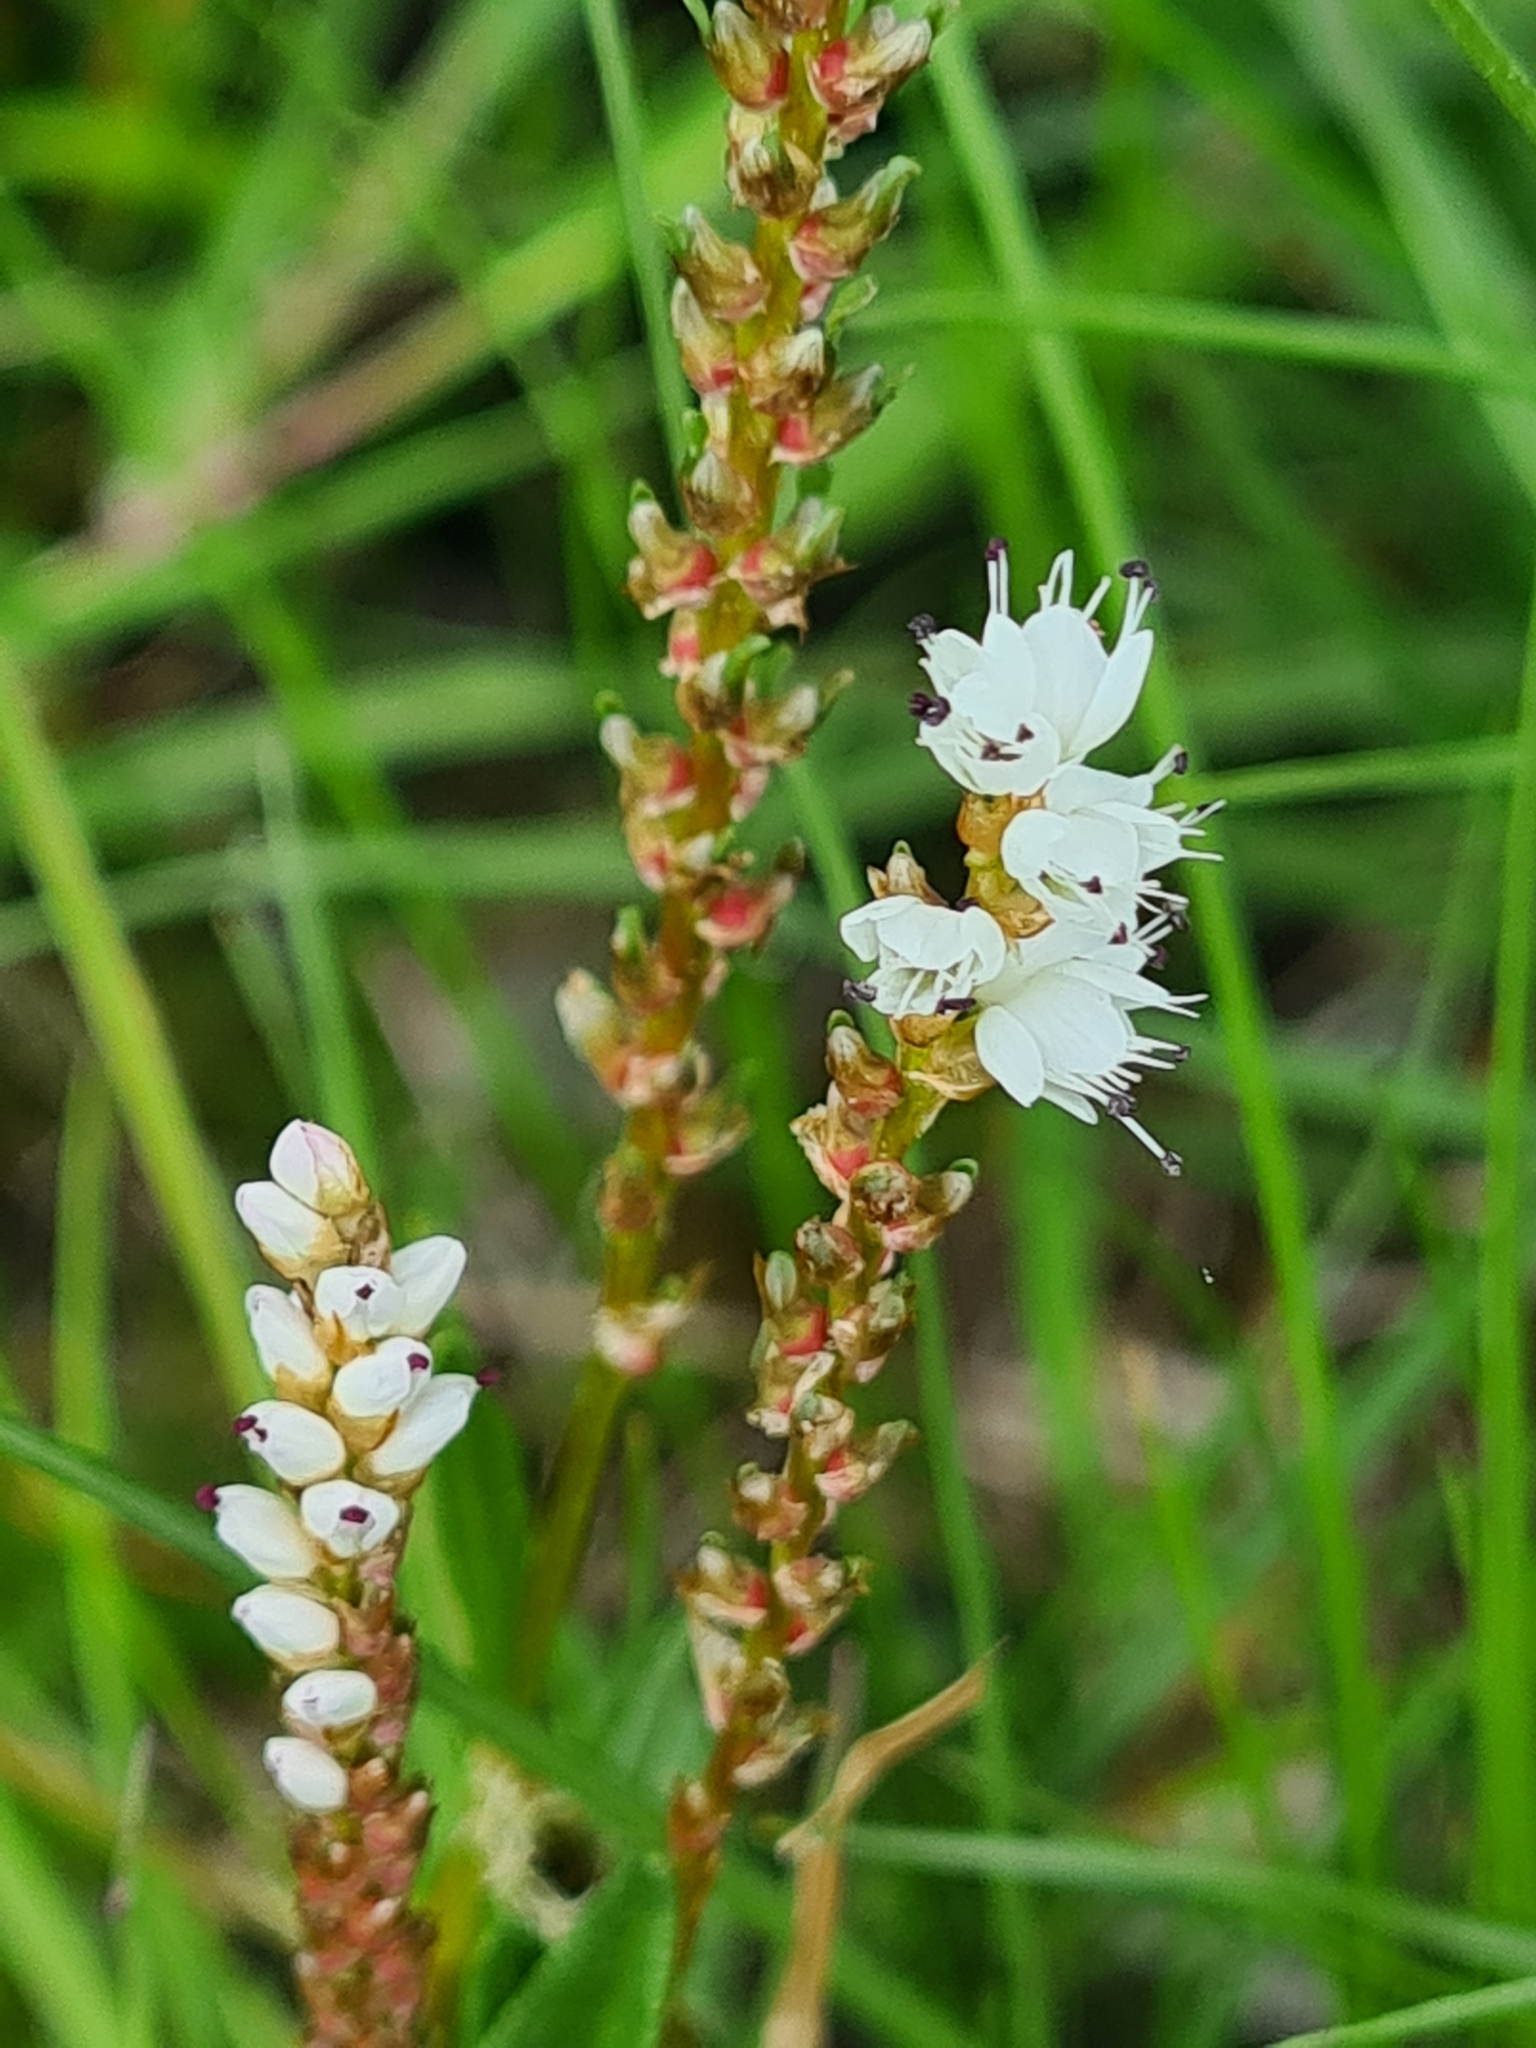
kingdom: Plantae
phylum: Tracheophyta
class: Magnoliopsida
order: Caryophyllales
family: Polygonaceae
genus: Bistorta
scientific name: Bistorta vivipara
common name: Alpine bistort
